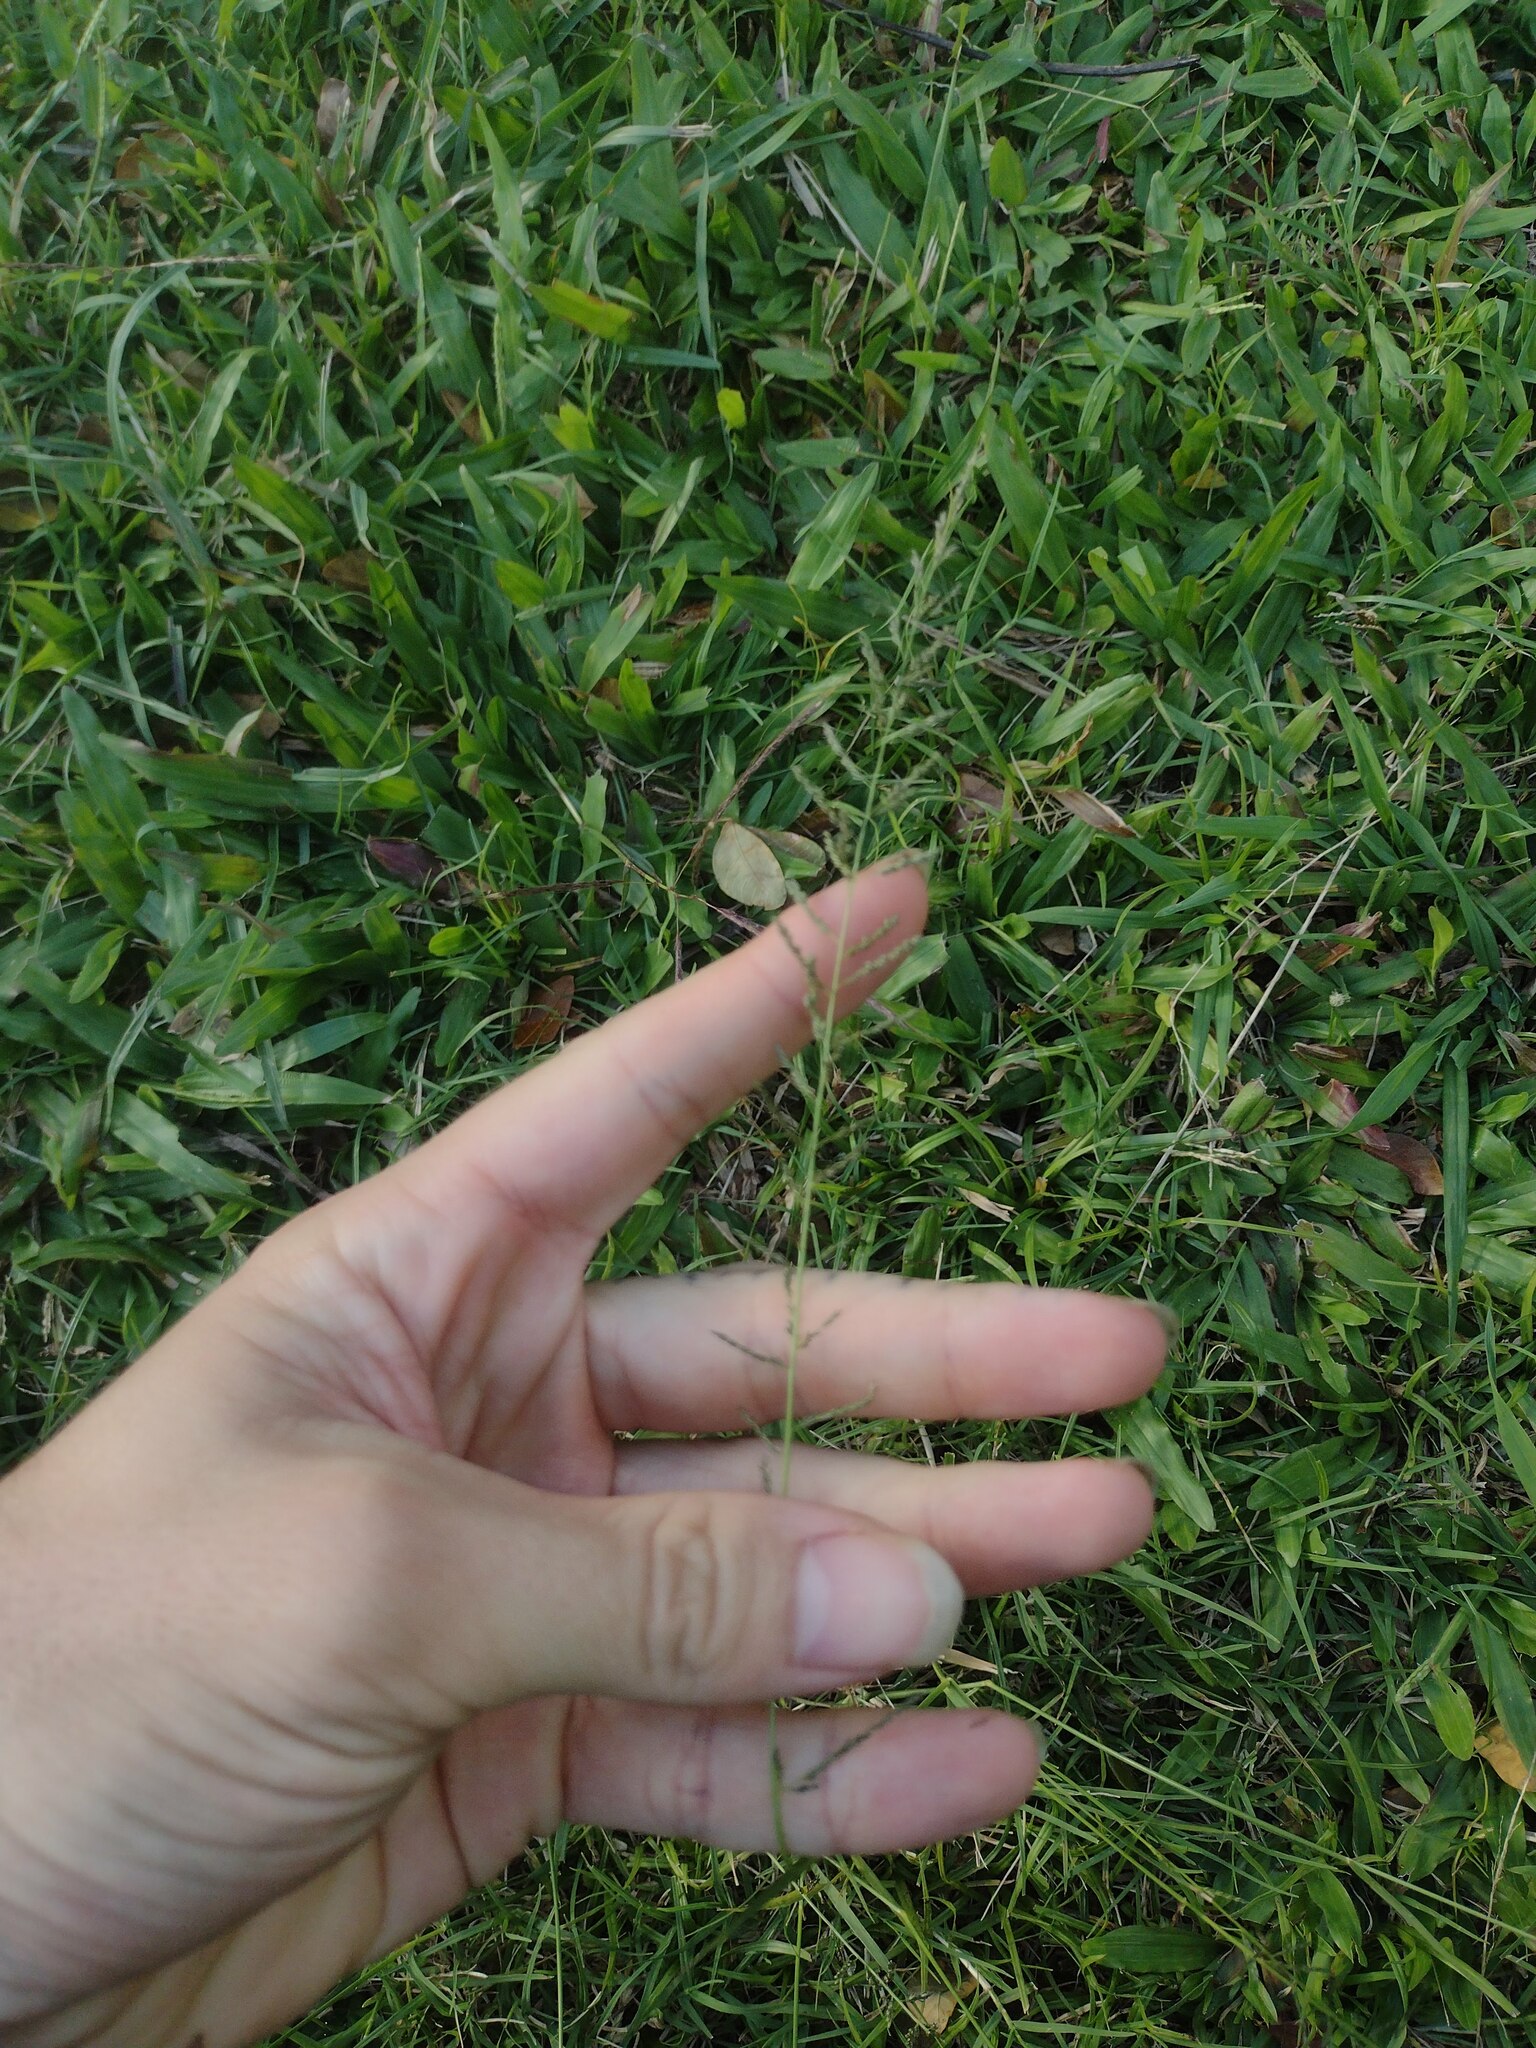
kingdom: Plantae
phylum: Tracheophyta
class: Liliopsida
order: Poales
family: Poaceae
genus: Sporobolus
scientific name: Sporobolus diandrus
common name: Tussock dropseed
